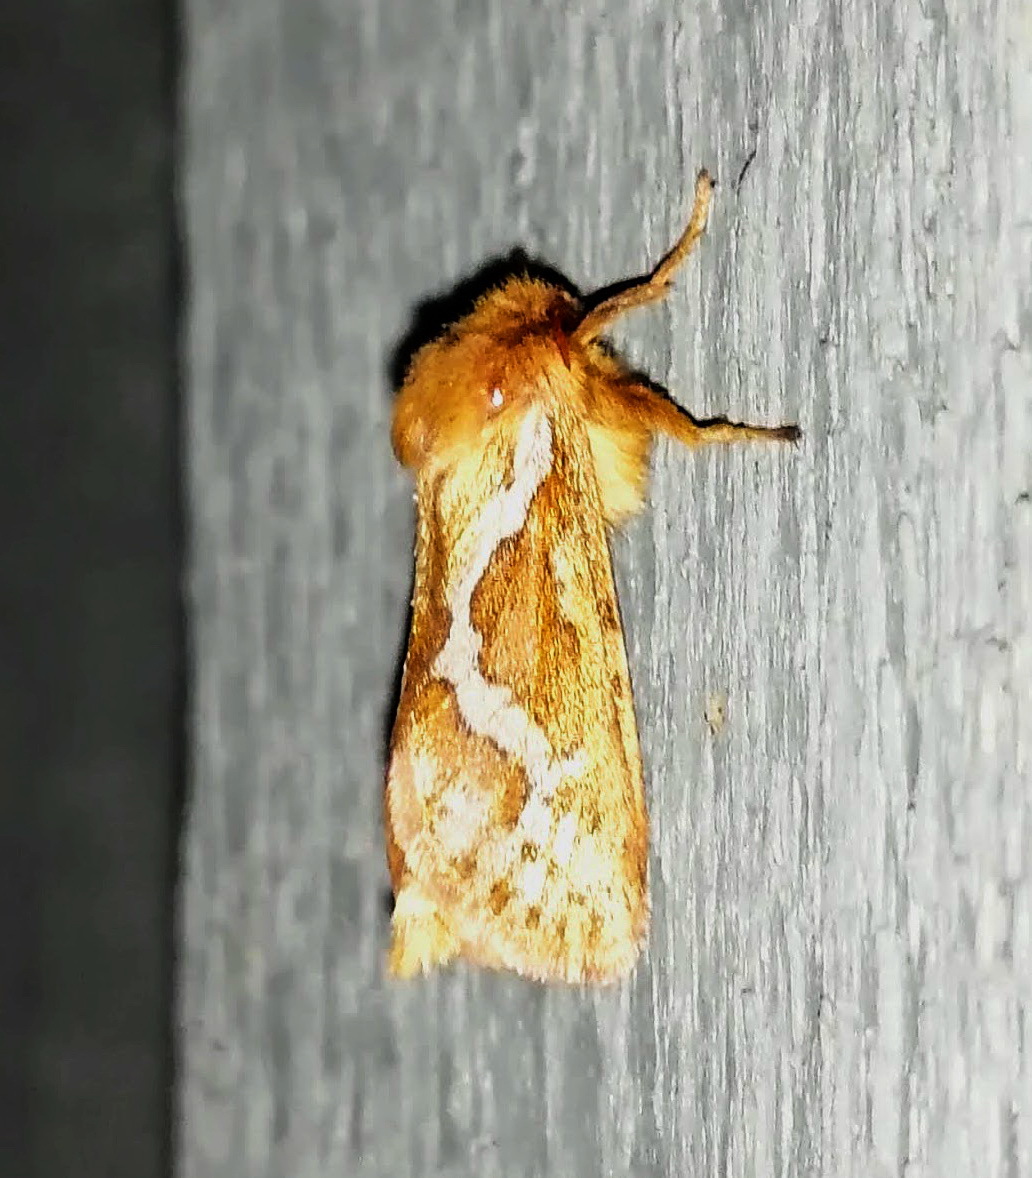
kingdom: Animalia
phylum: Arthropoda
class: Insecta
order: Lepidoptera
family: Hepialidae
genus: Korscheltellus
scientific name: Korscheltellus lupulina
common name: Common swift
